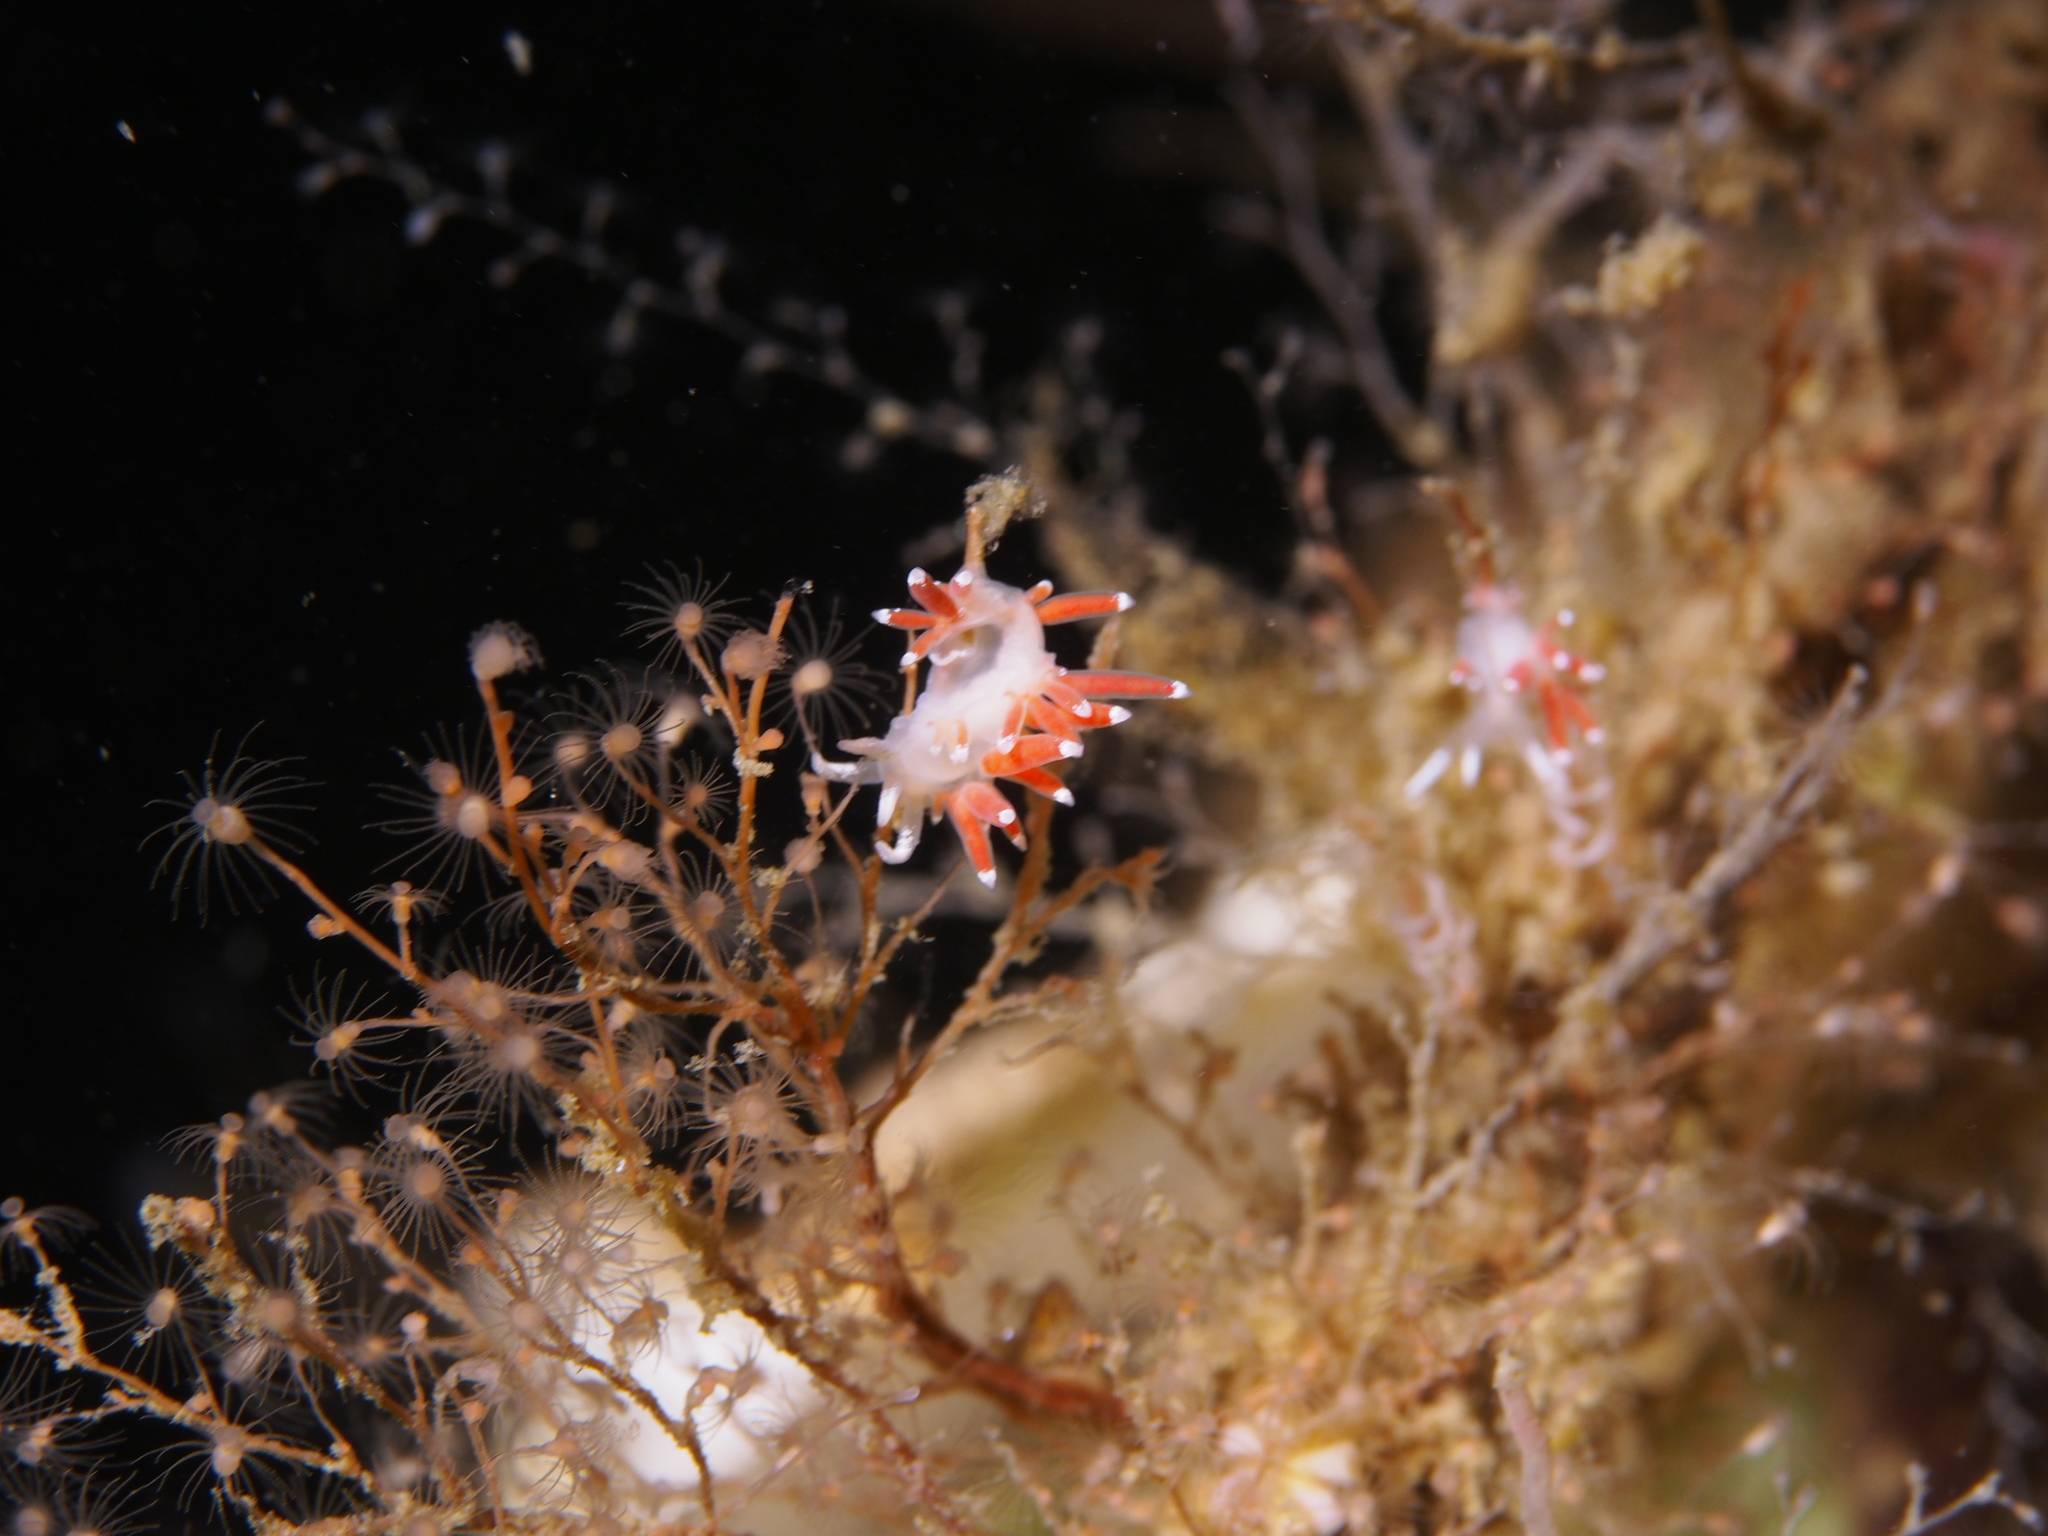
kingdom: Animalia
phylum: Mollusca
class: Gastropoda
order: Nudibranchia
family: Coryphellidae
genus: Coryphella
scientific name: Coryphella gracilis
